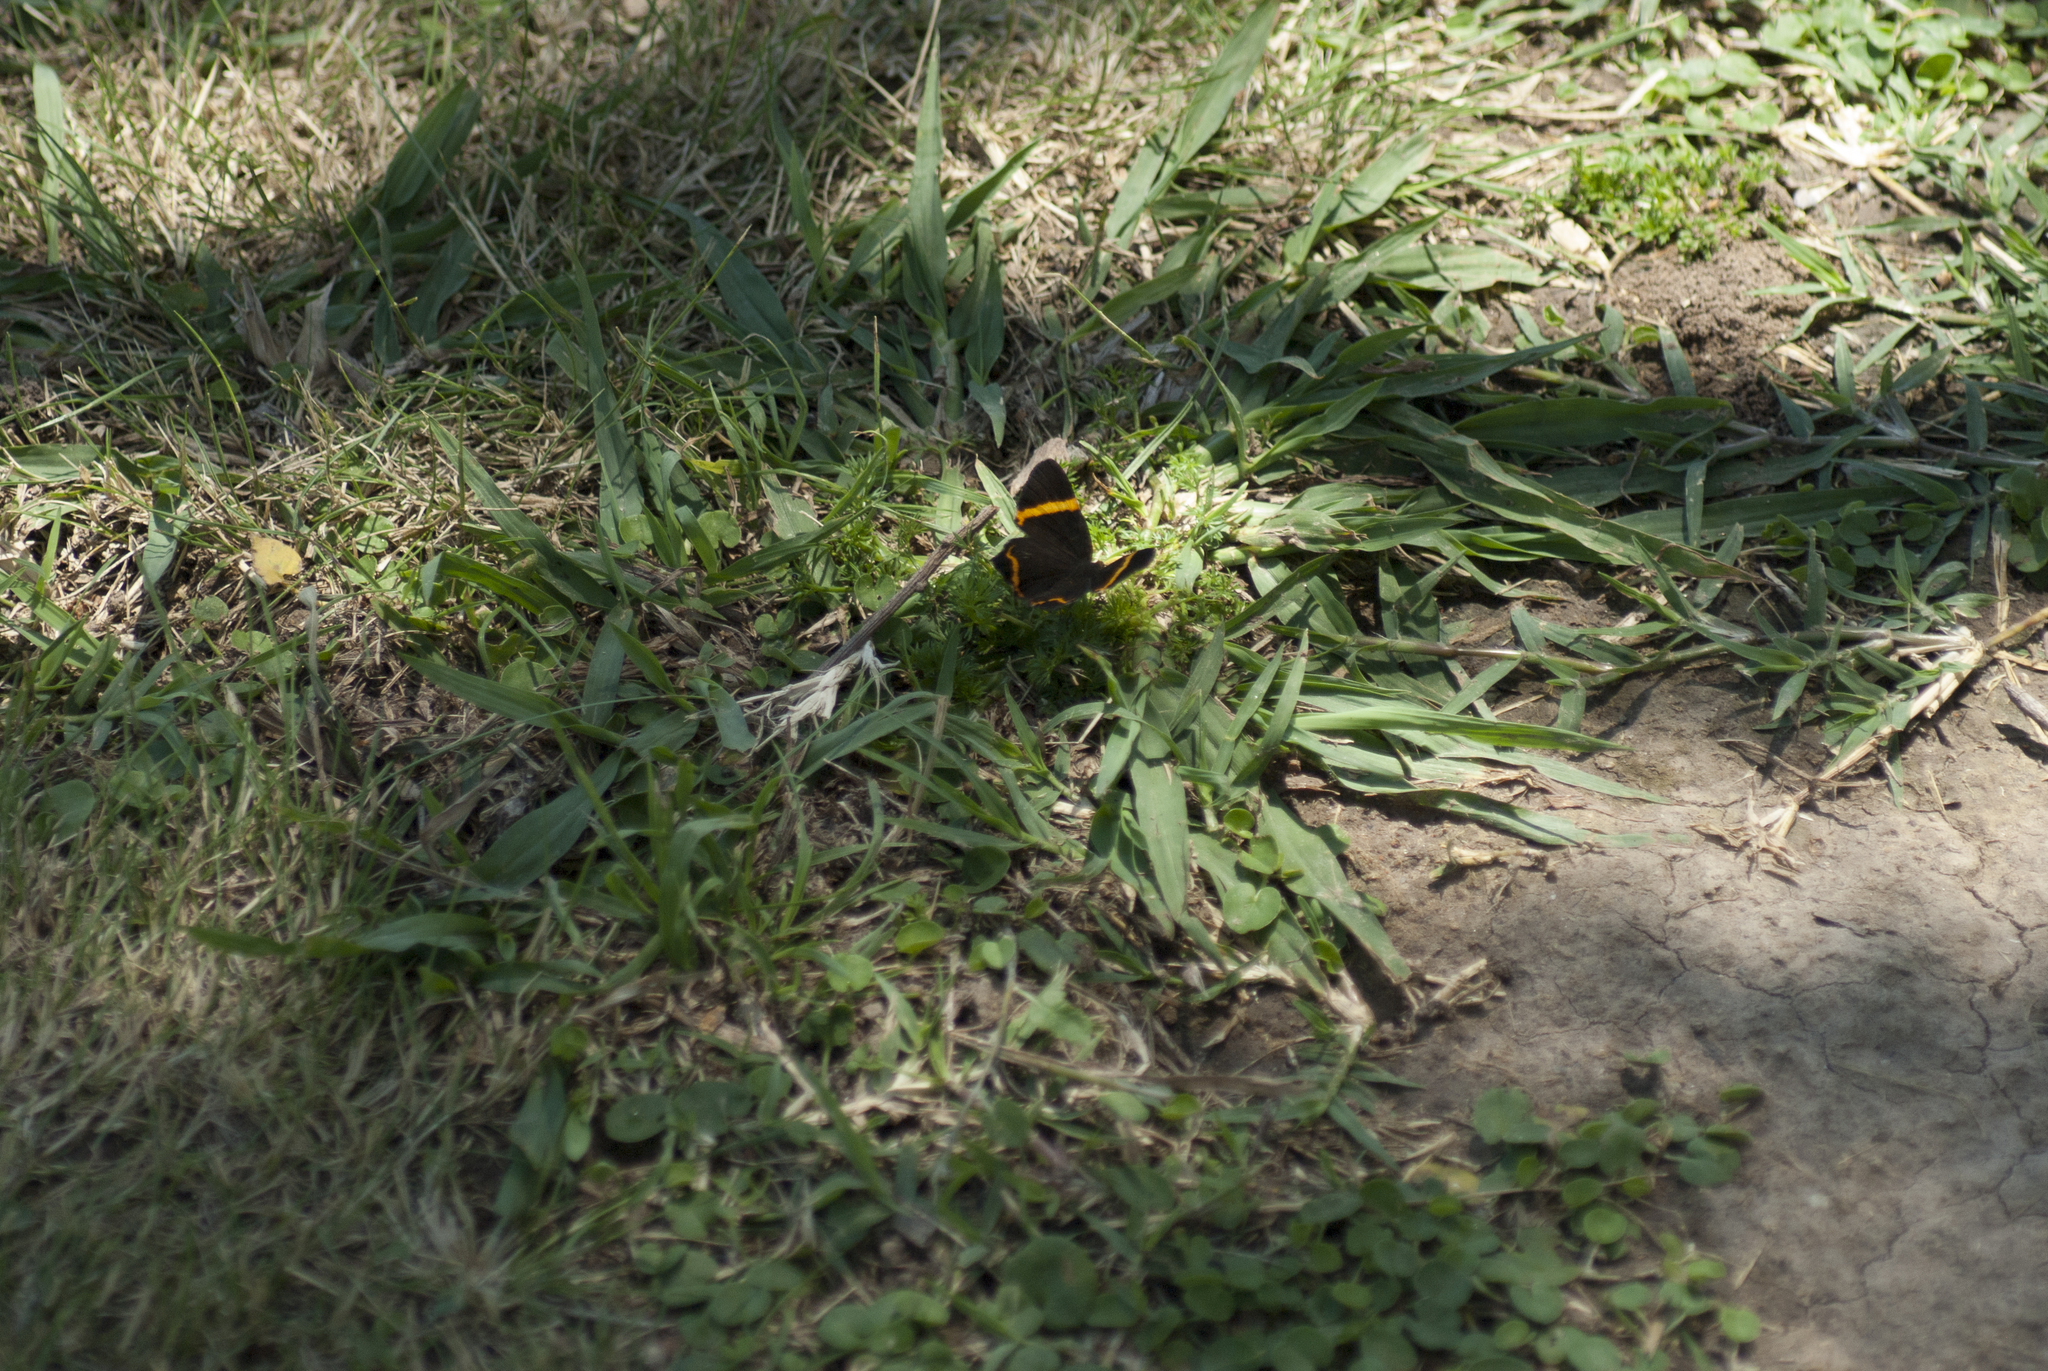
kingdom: Animalia
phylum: Arthropoda
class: Insecta
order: Lepidoptera
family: Riodinidae
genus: Riodina
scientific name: Riodina lysippoides
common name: Little dancer metalmark
